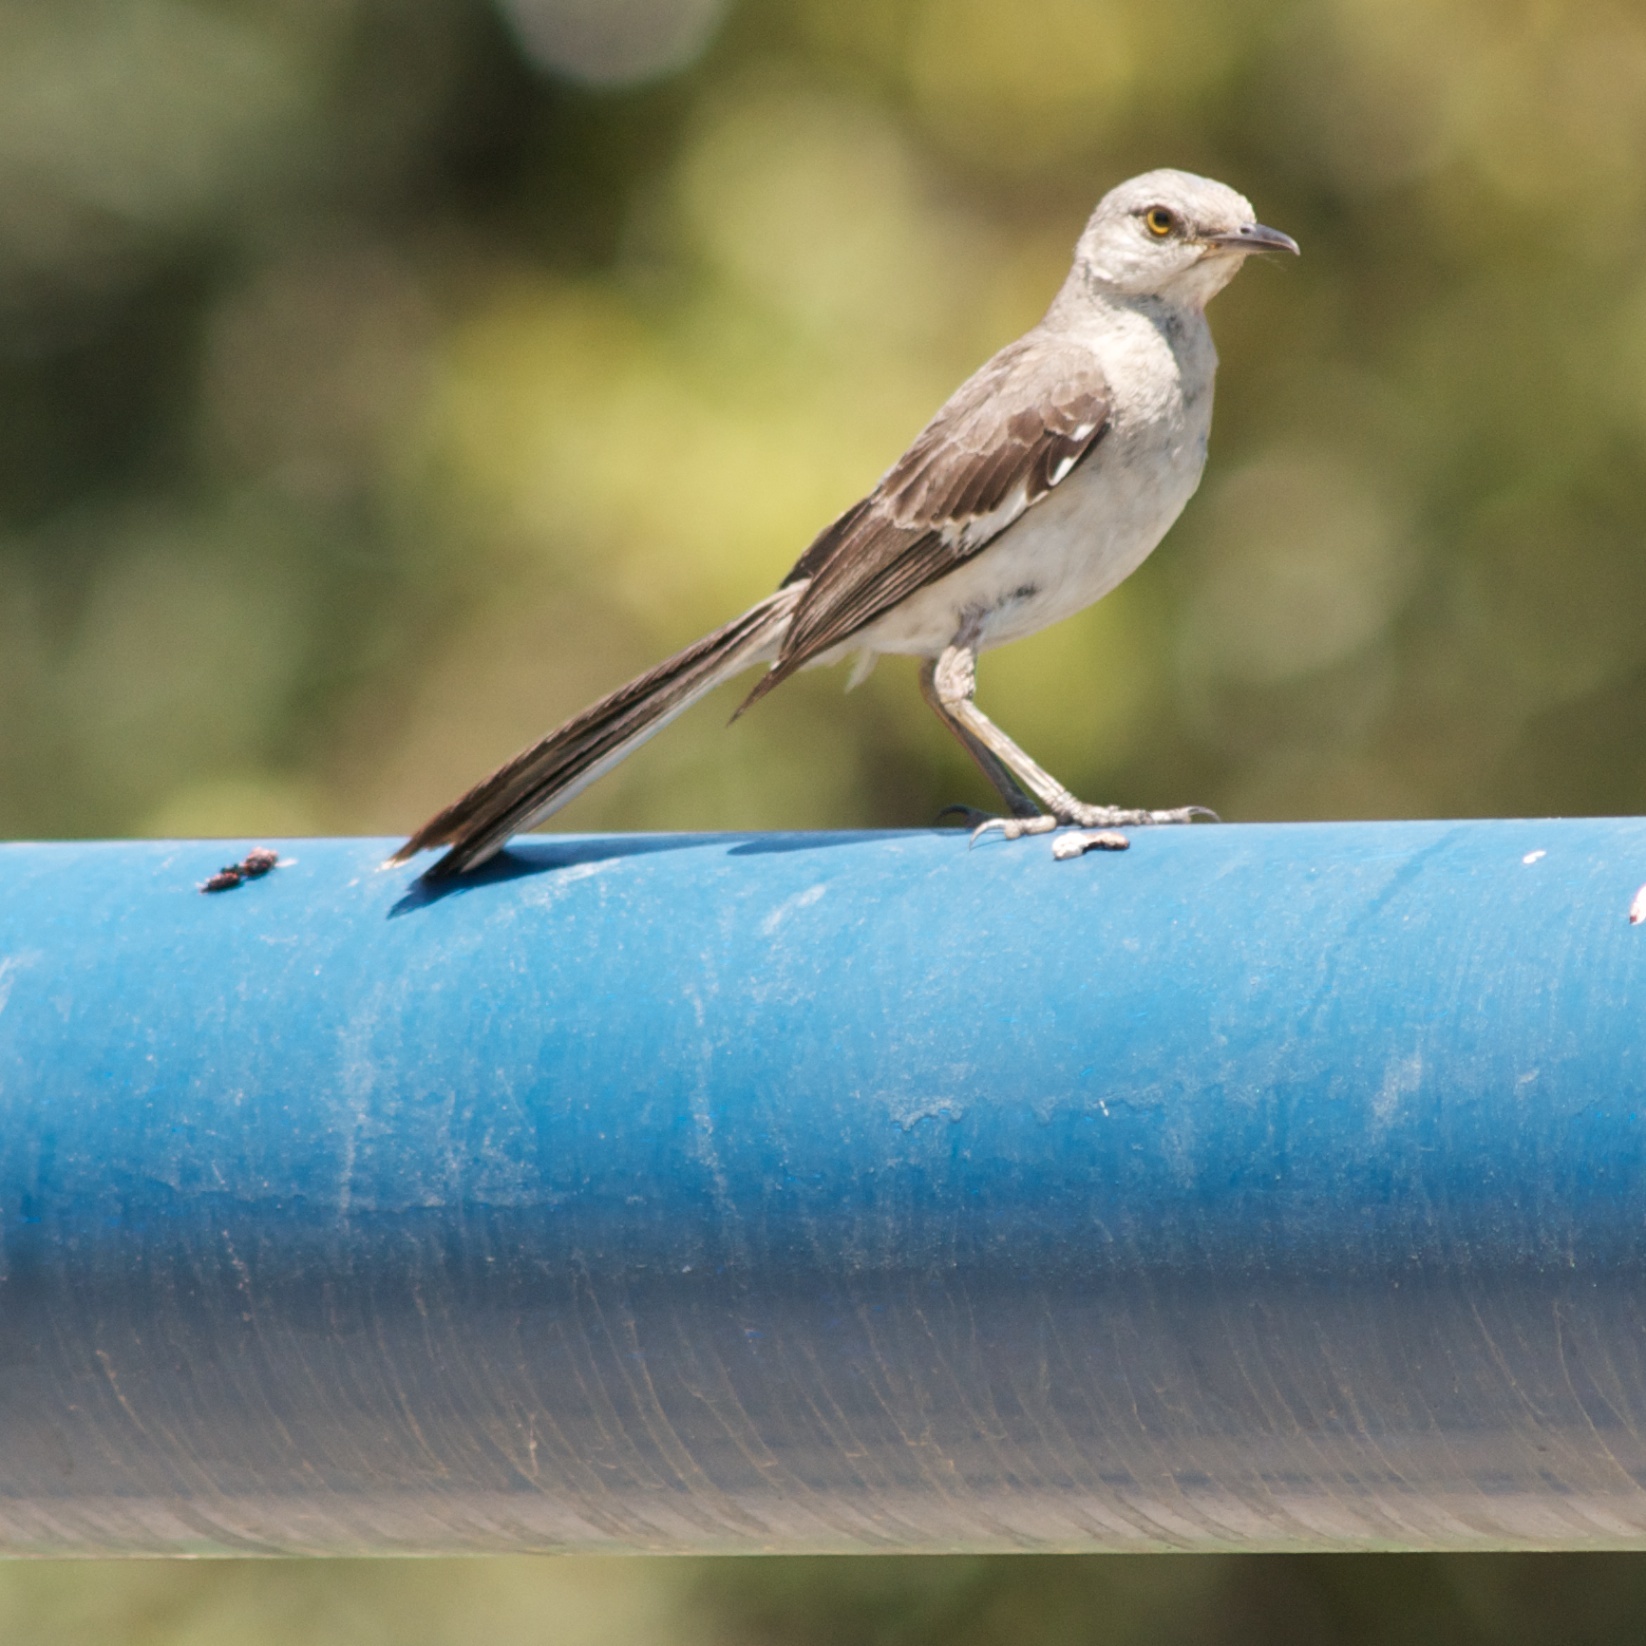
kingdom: Animalia
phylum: Chordata
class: Aves
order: Passeriformes
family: Mimidae
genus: Mimus
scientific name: Mimus polyglottos
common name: Northern mockingbird
